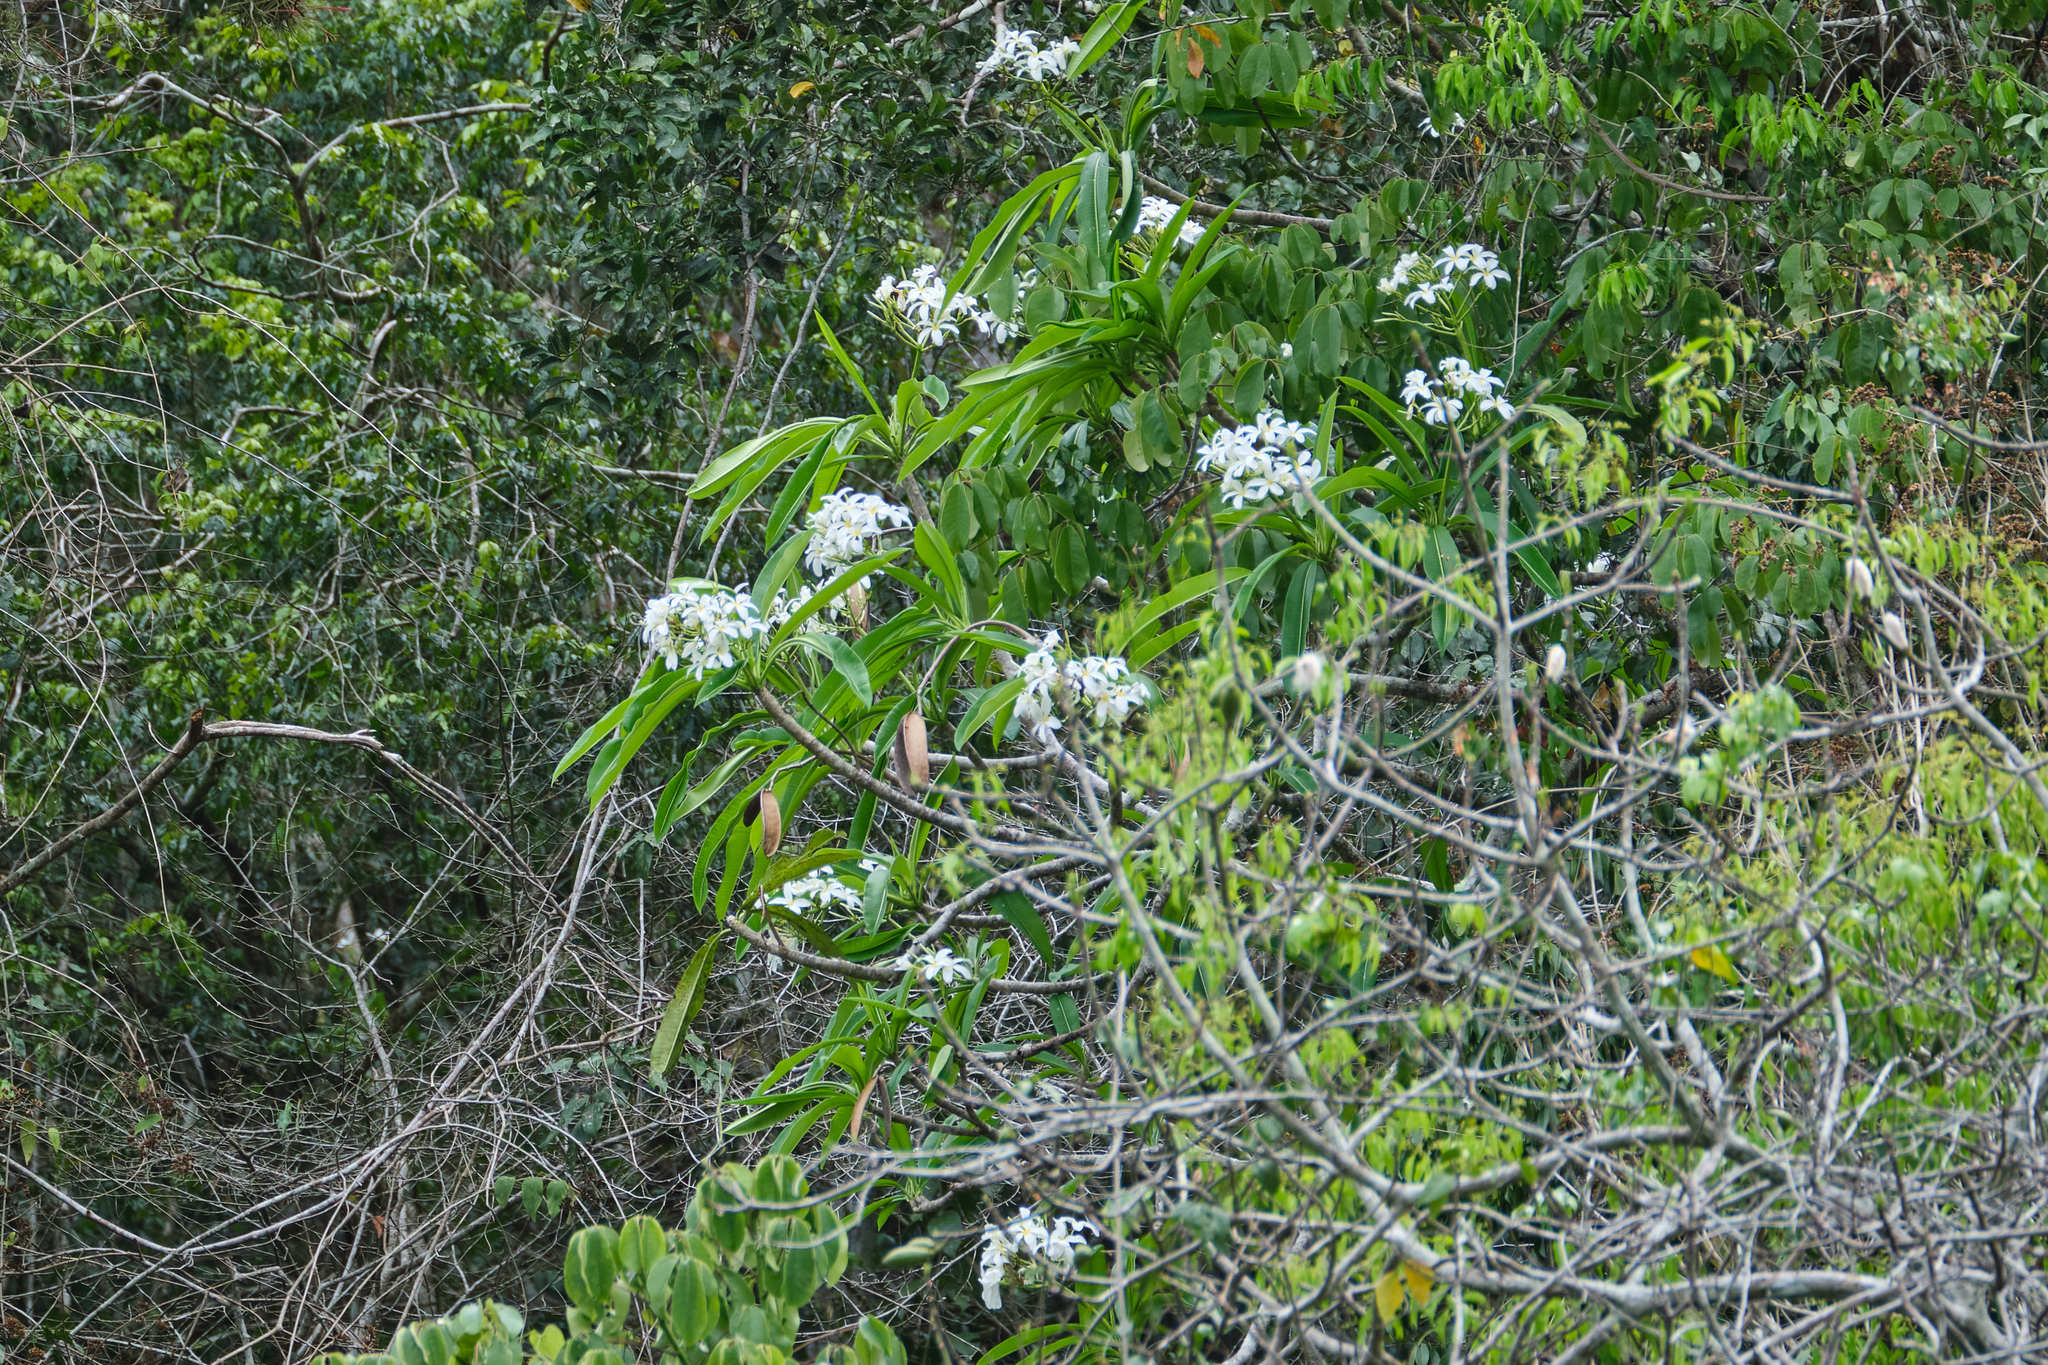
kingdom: Plantae
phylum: Tracheophyta
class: Magnoliopsida
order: Gentianales
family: Apocynaceae
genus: Plumeria
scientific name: Plumeria obtusa
